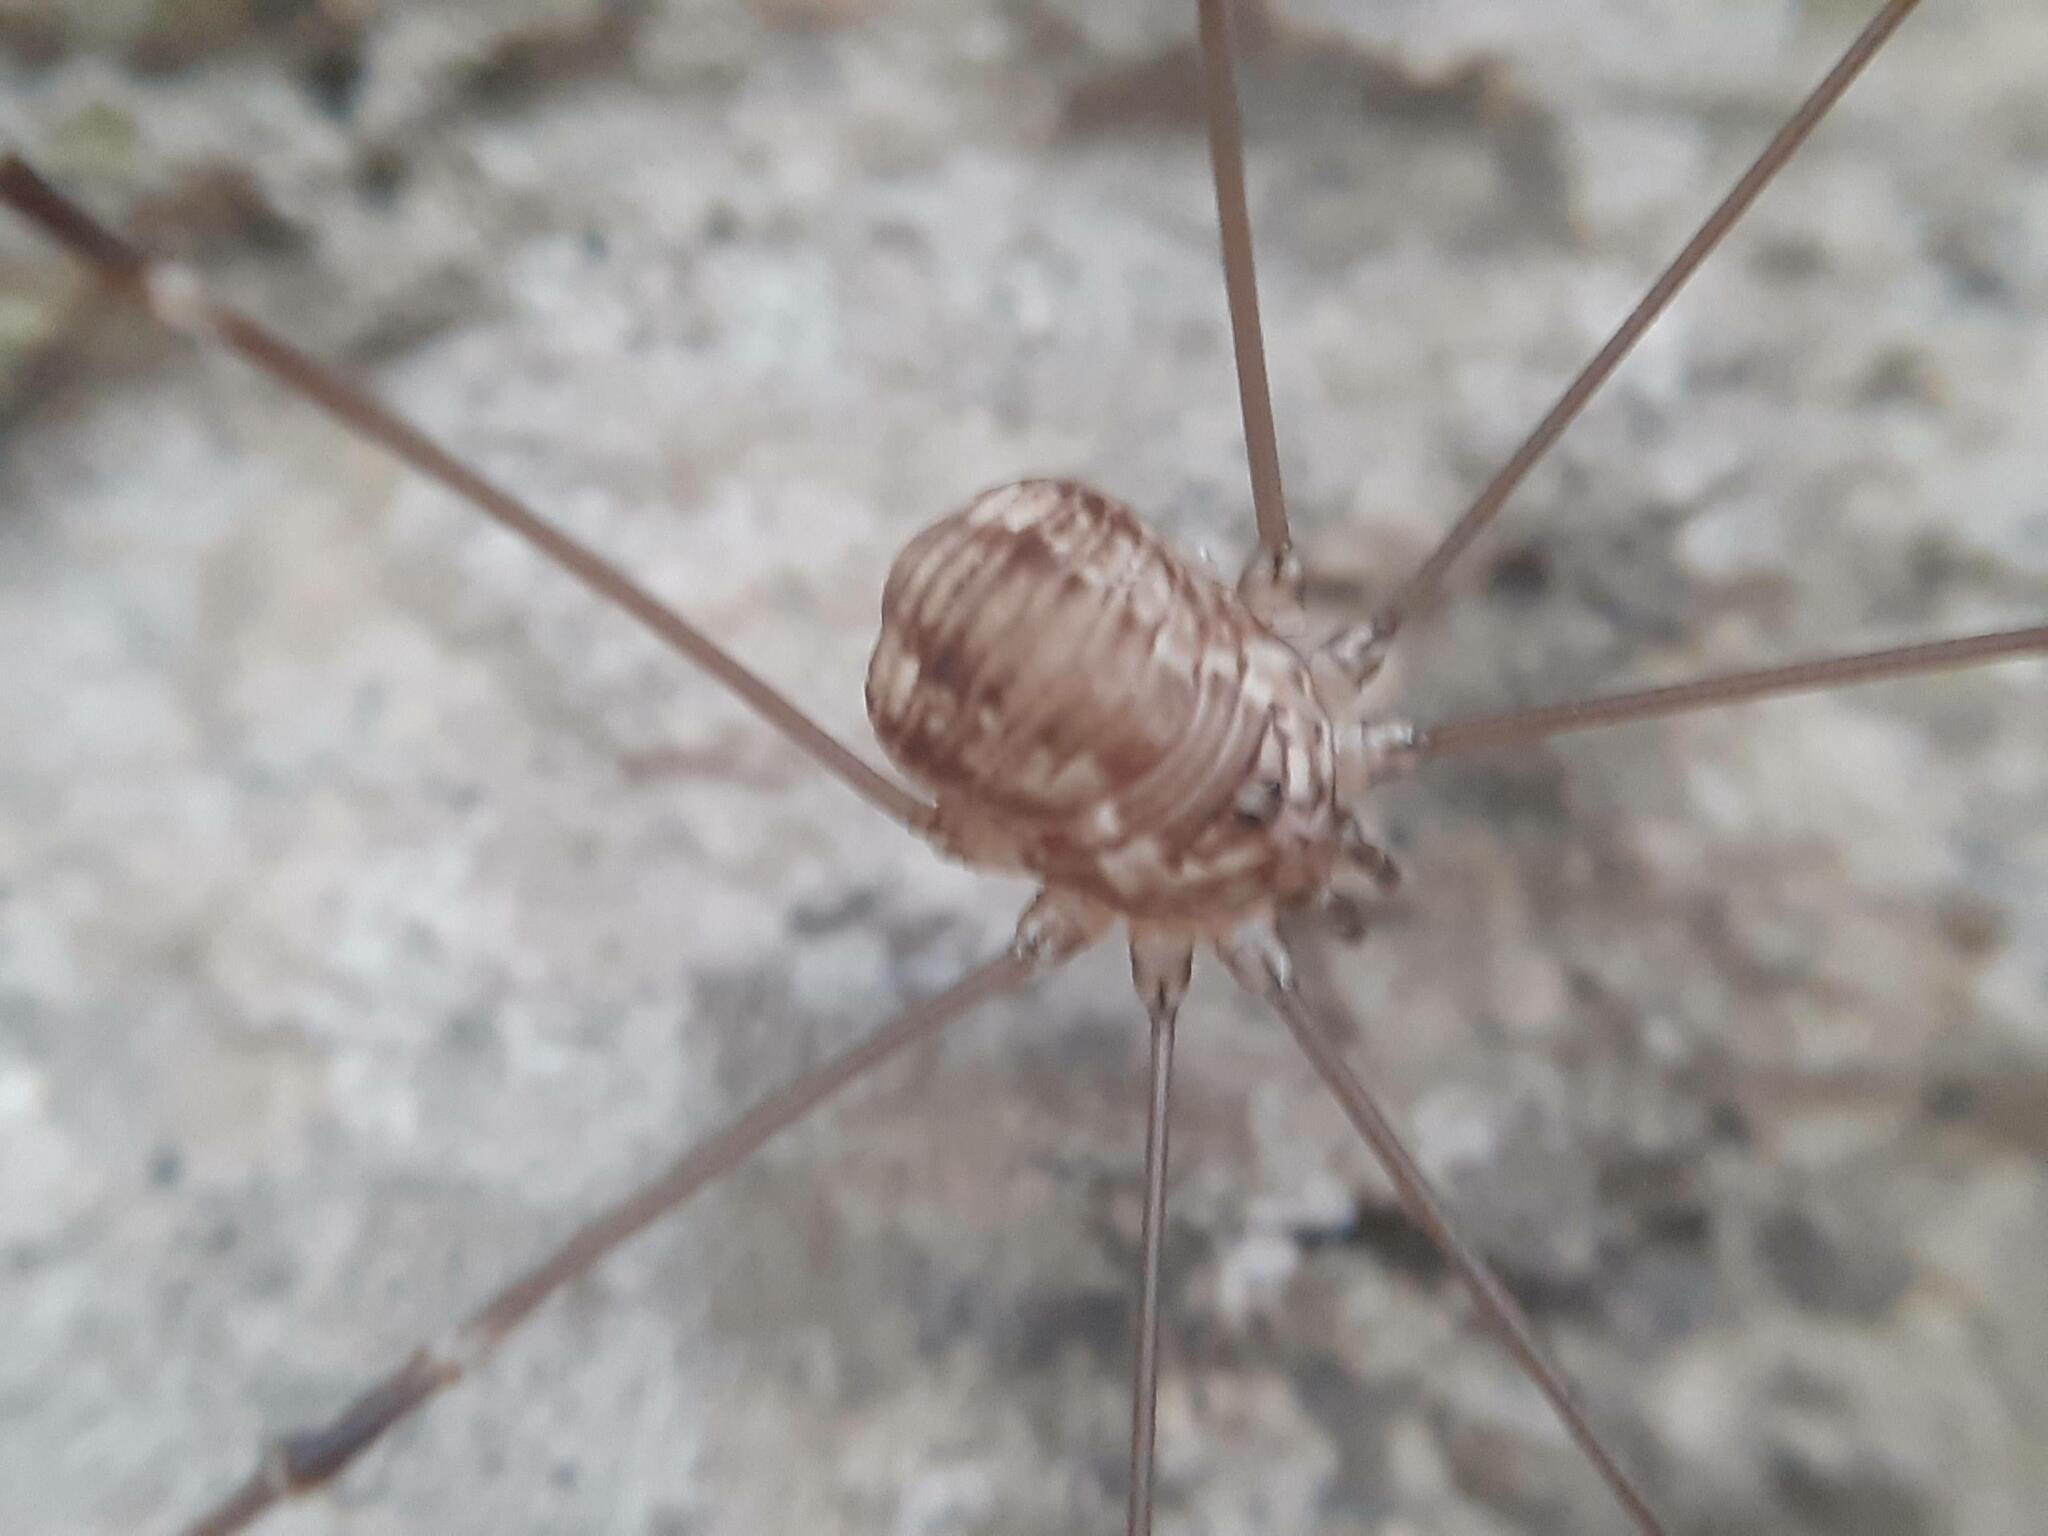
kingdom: Animalia
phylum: Arthropoda
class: Arachnida
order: Opiliones
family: Sclerosomatidae
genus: Leiobunum
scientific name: Leiobunum limbatum
